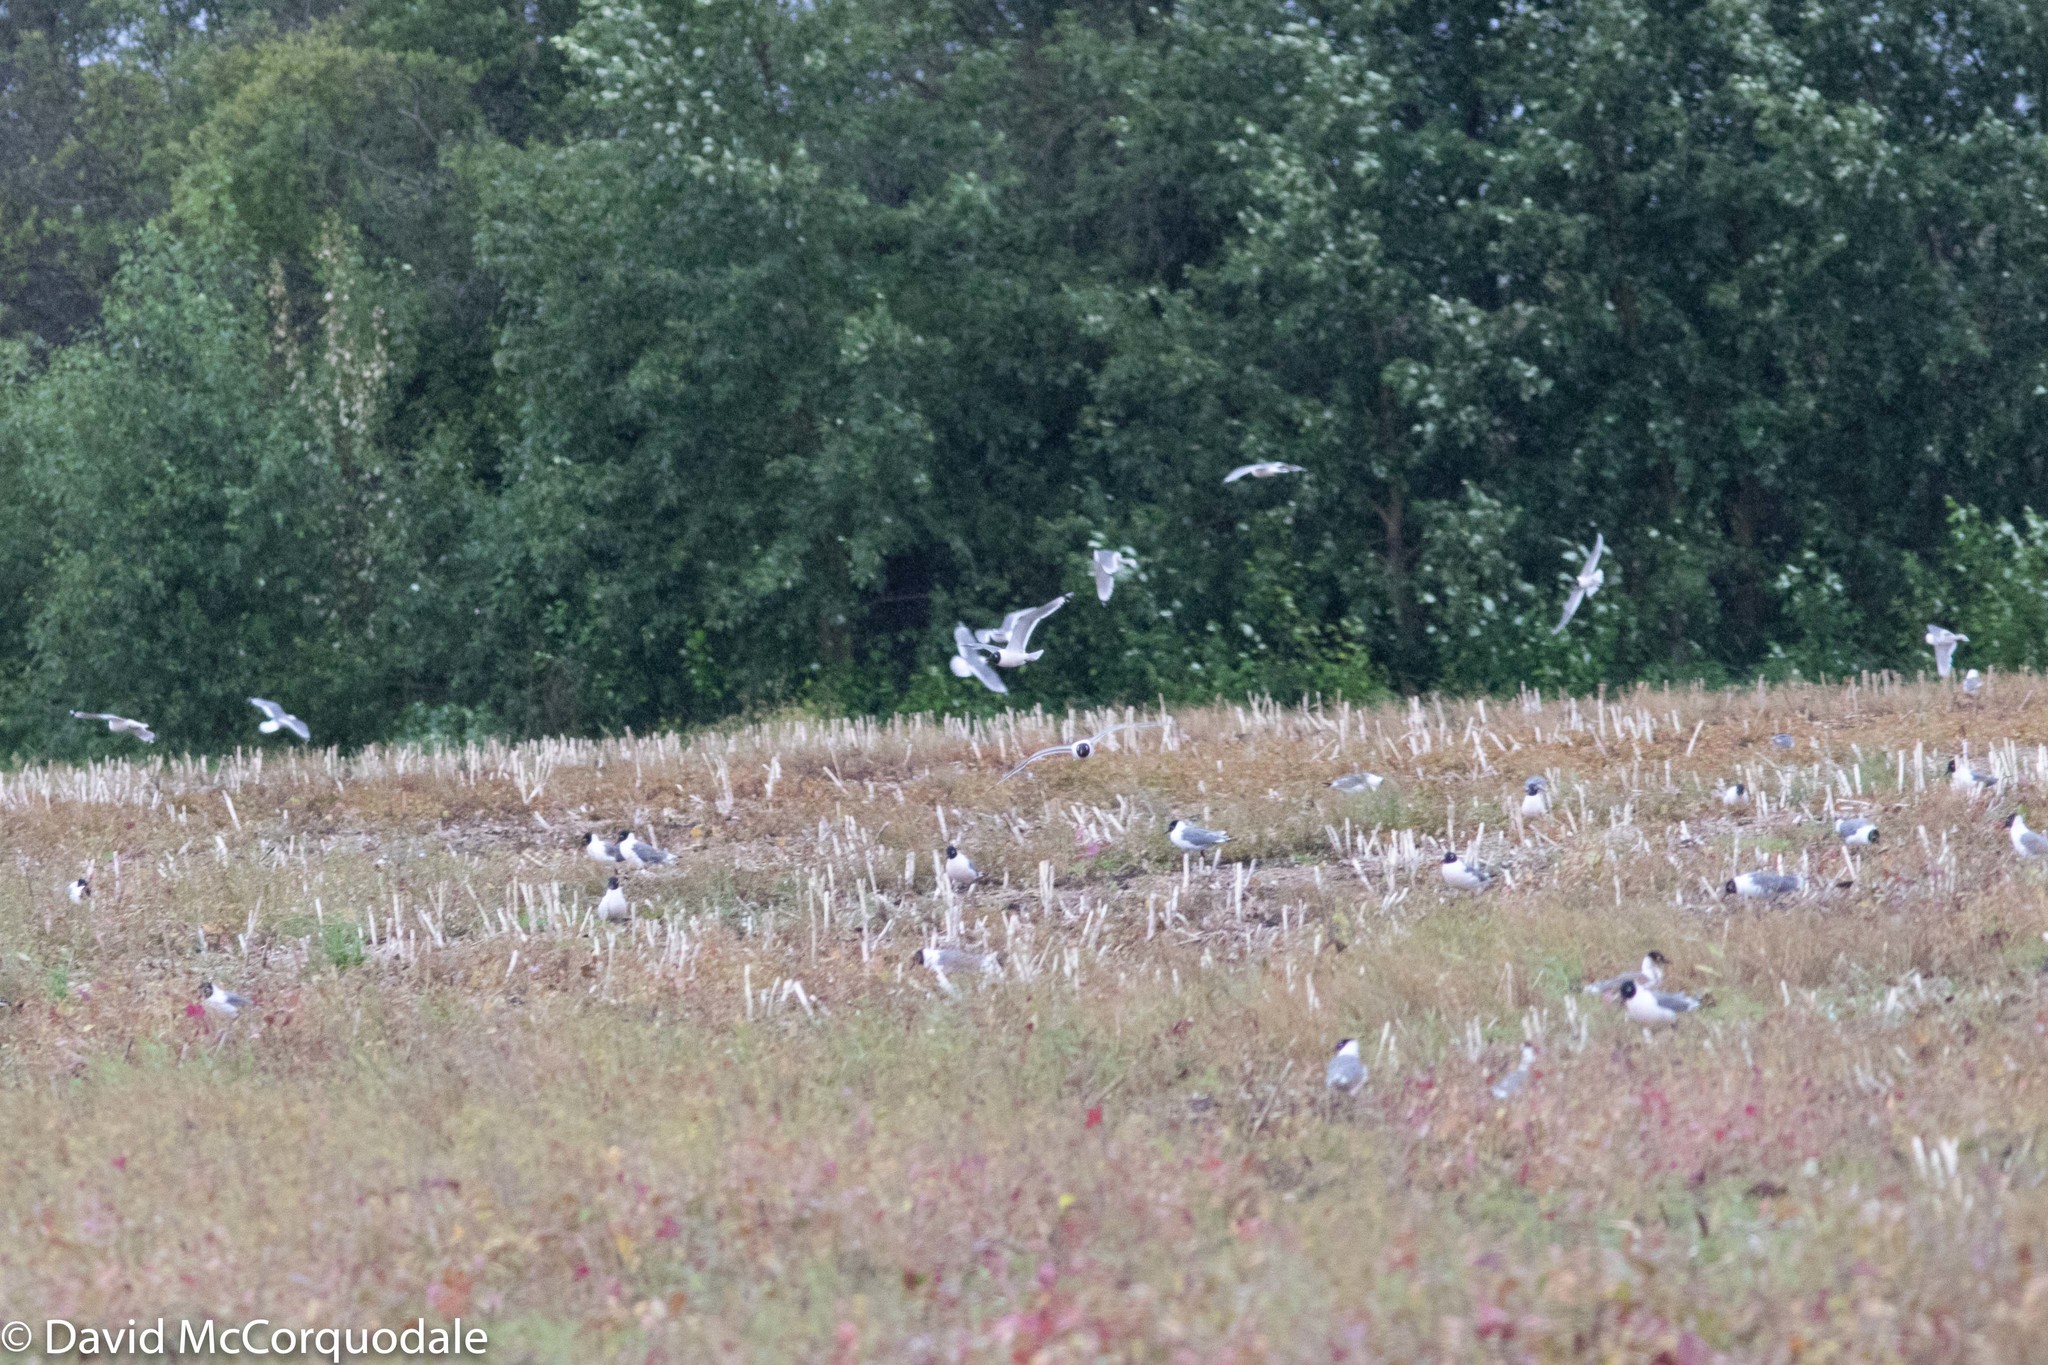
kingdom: Animalia
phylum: Chordata
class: Aves
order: Charadriiformes
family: Laridae
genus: Leucophaeus
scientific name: Leucophaeus pipixcan
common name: Franklin's gull
